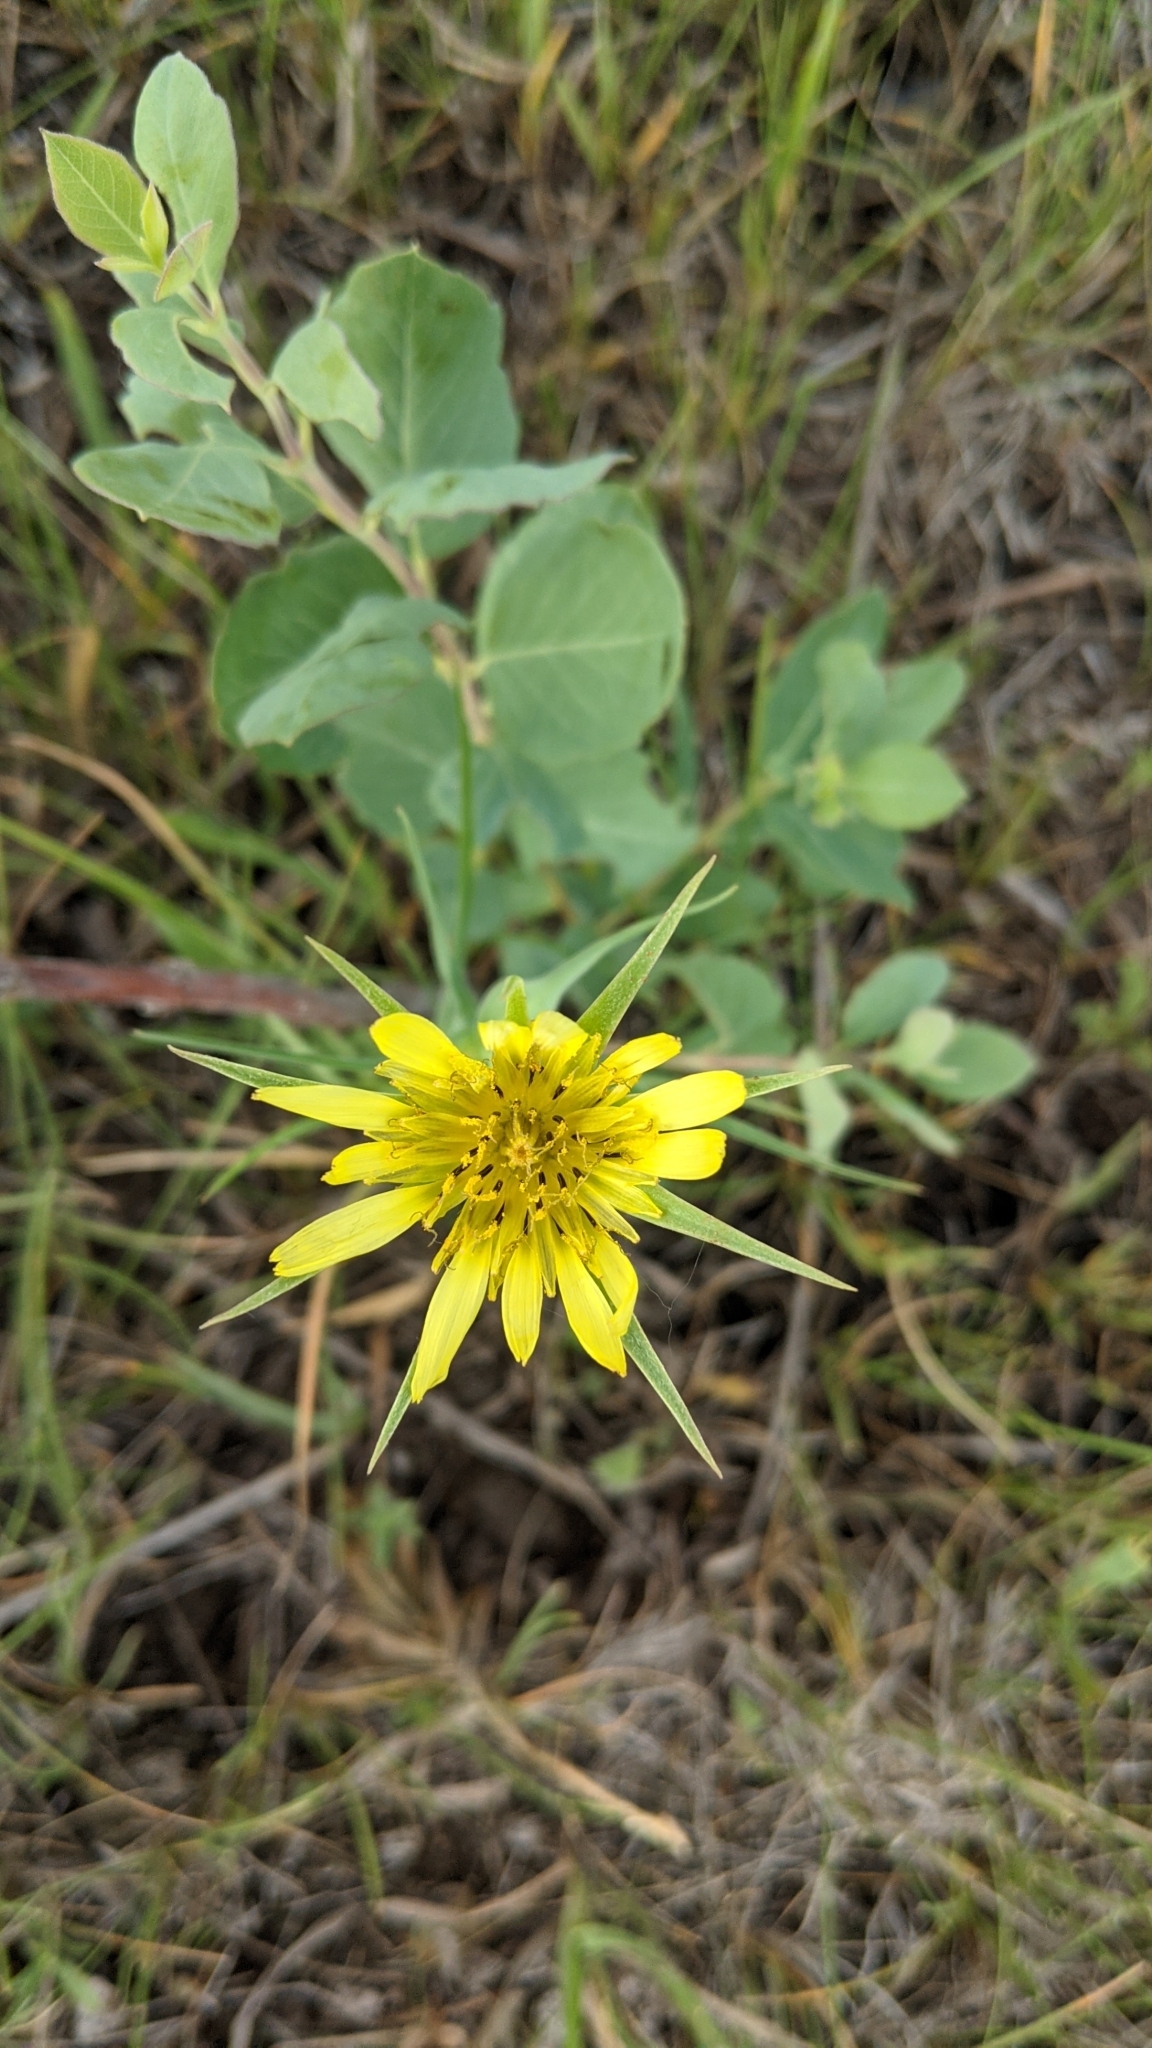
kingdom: Plantae
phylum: Tracheophyta
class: Magnoliopsida
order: Asterales
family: Asteraceae
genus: Tragopogon
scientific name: Tragopogon dubius
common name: Yellow salsify
